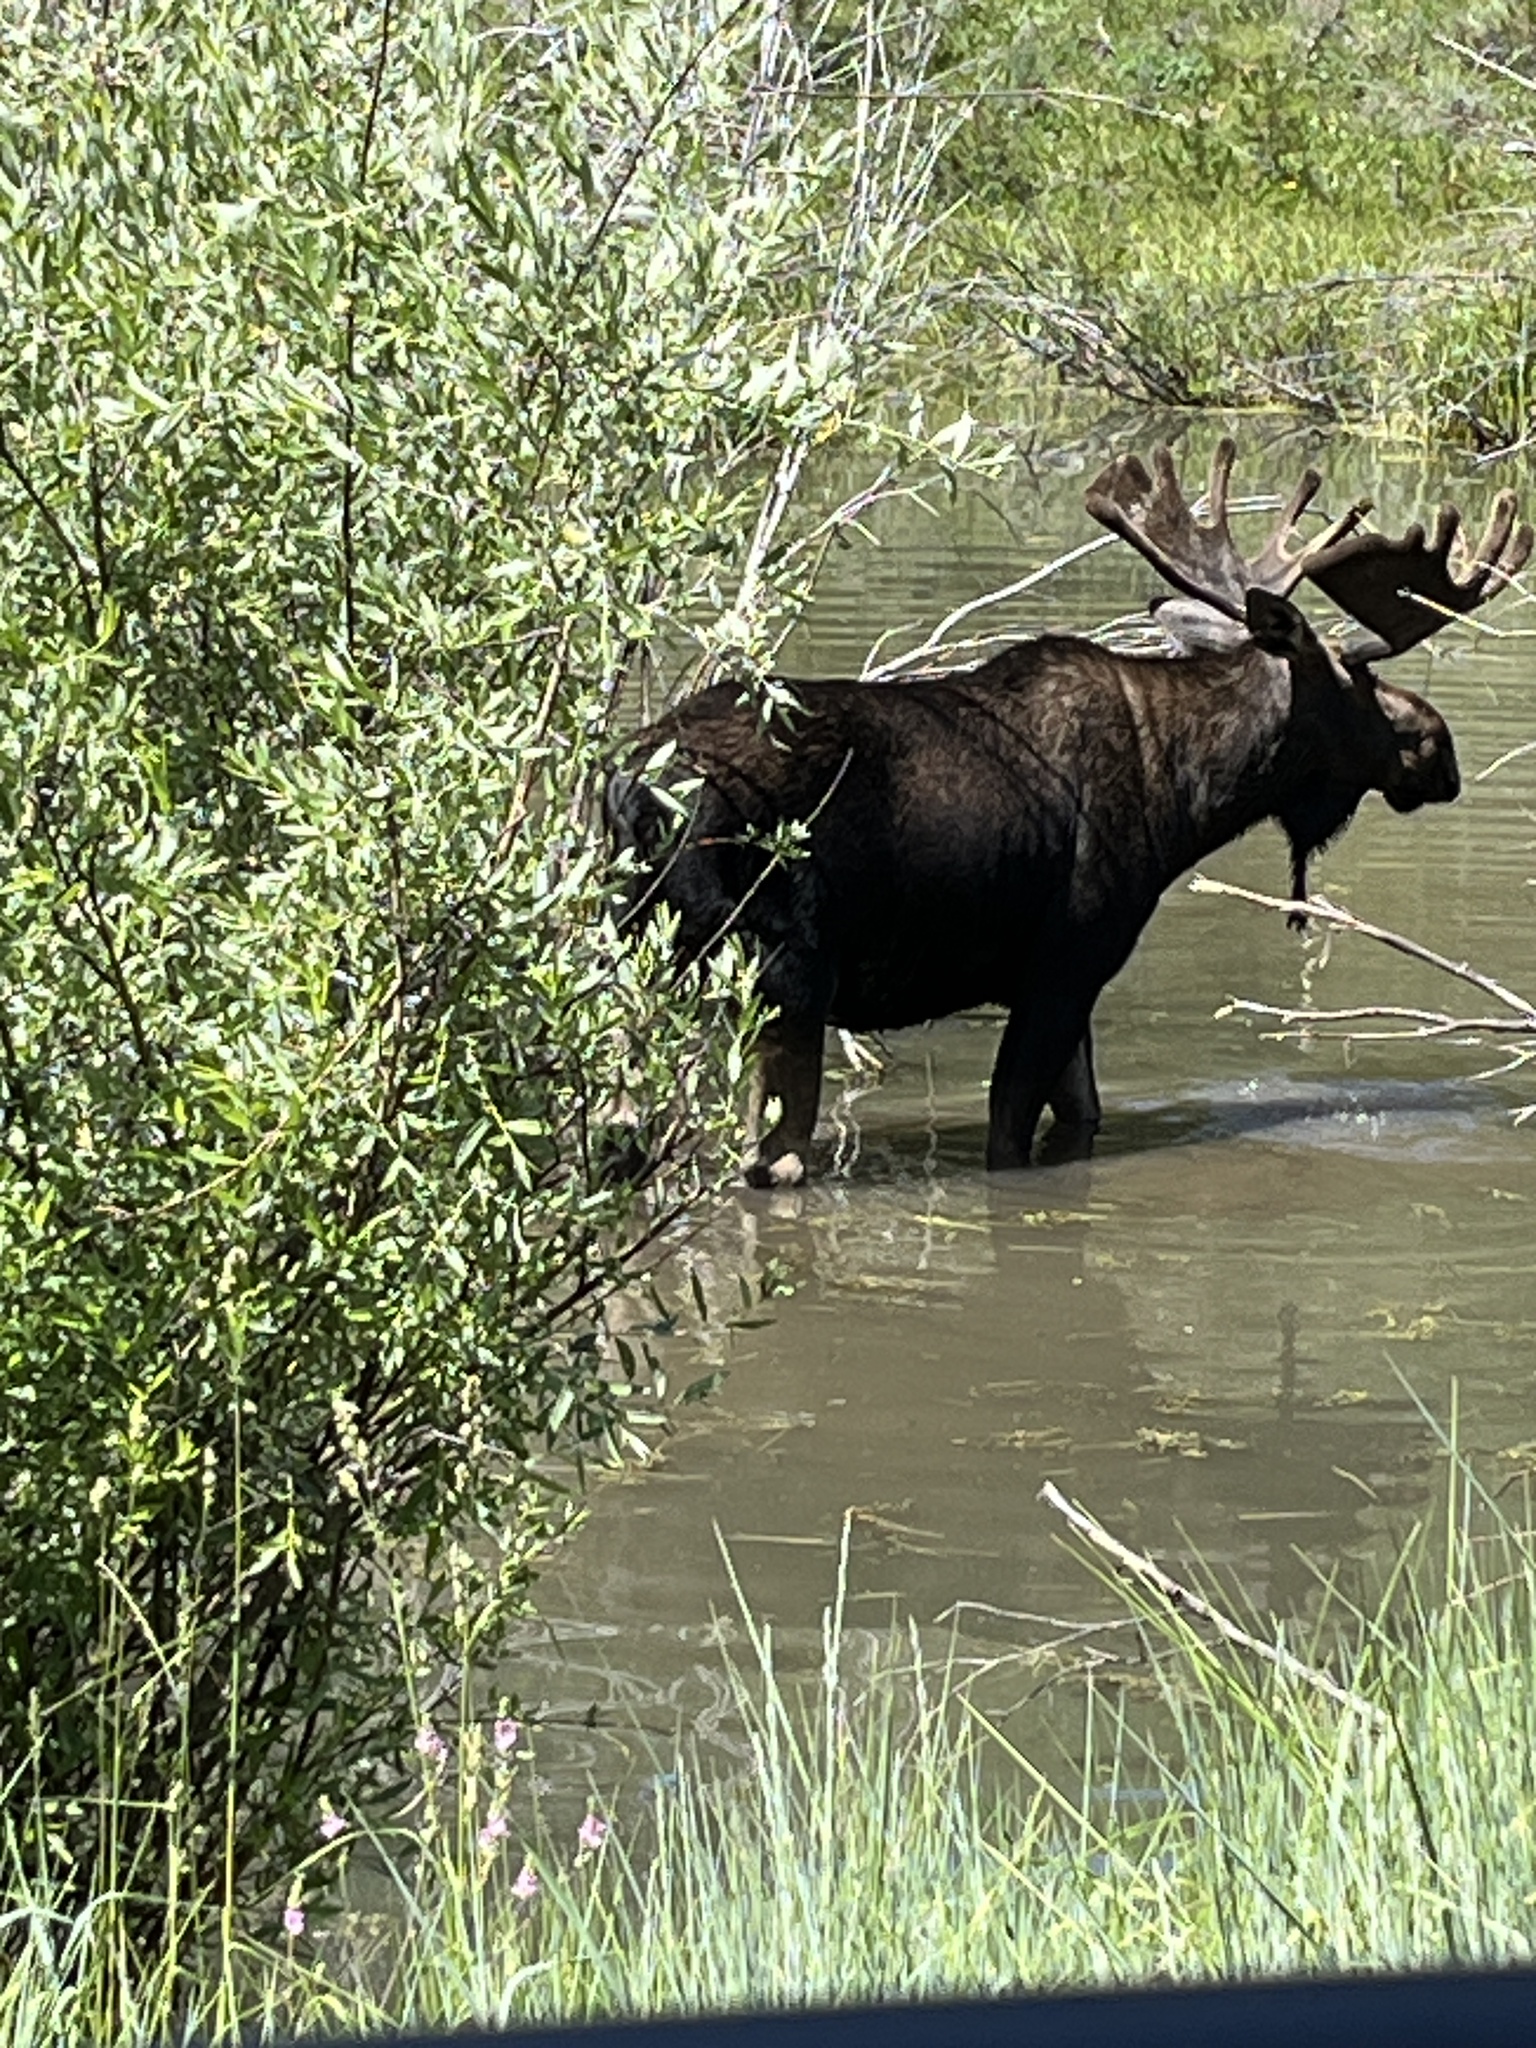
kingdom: Animalia
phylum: Chordata
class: Mammalia
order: Artiodactyla
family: Cervidae
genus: Alces
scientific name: Alces alces
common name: Moose
